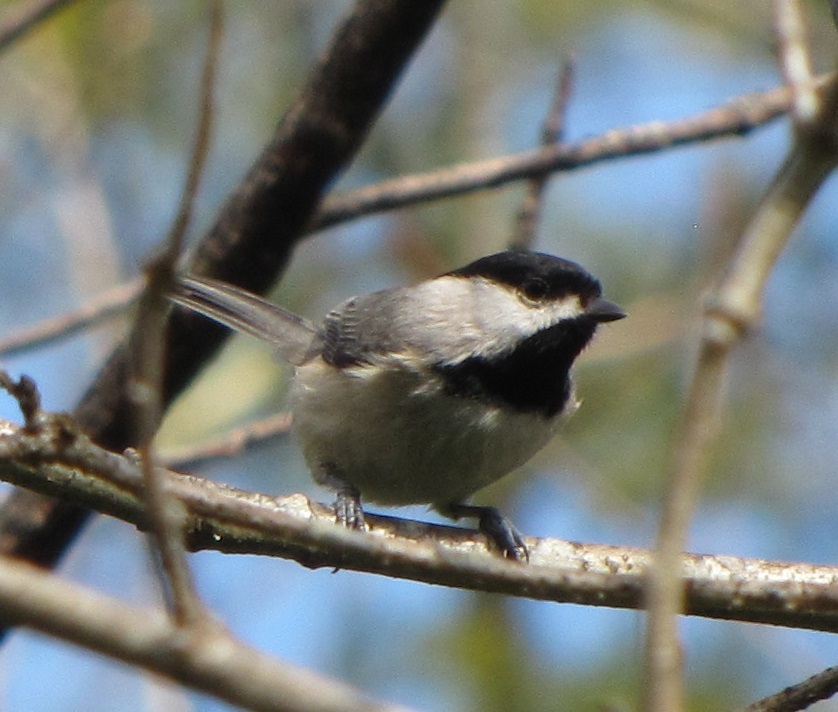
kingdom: Animalia
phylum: Chordata
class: Aves
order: Passeriformes
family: Paridae
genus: Poecile
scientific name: Poecile carolinensis
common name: Carolina chickadee
